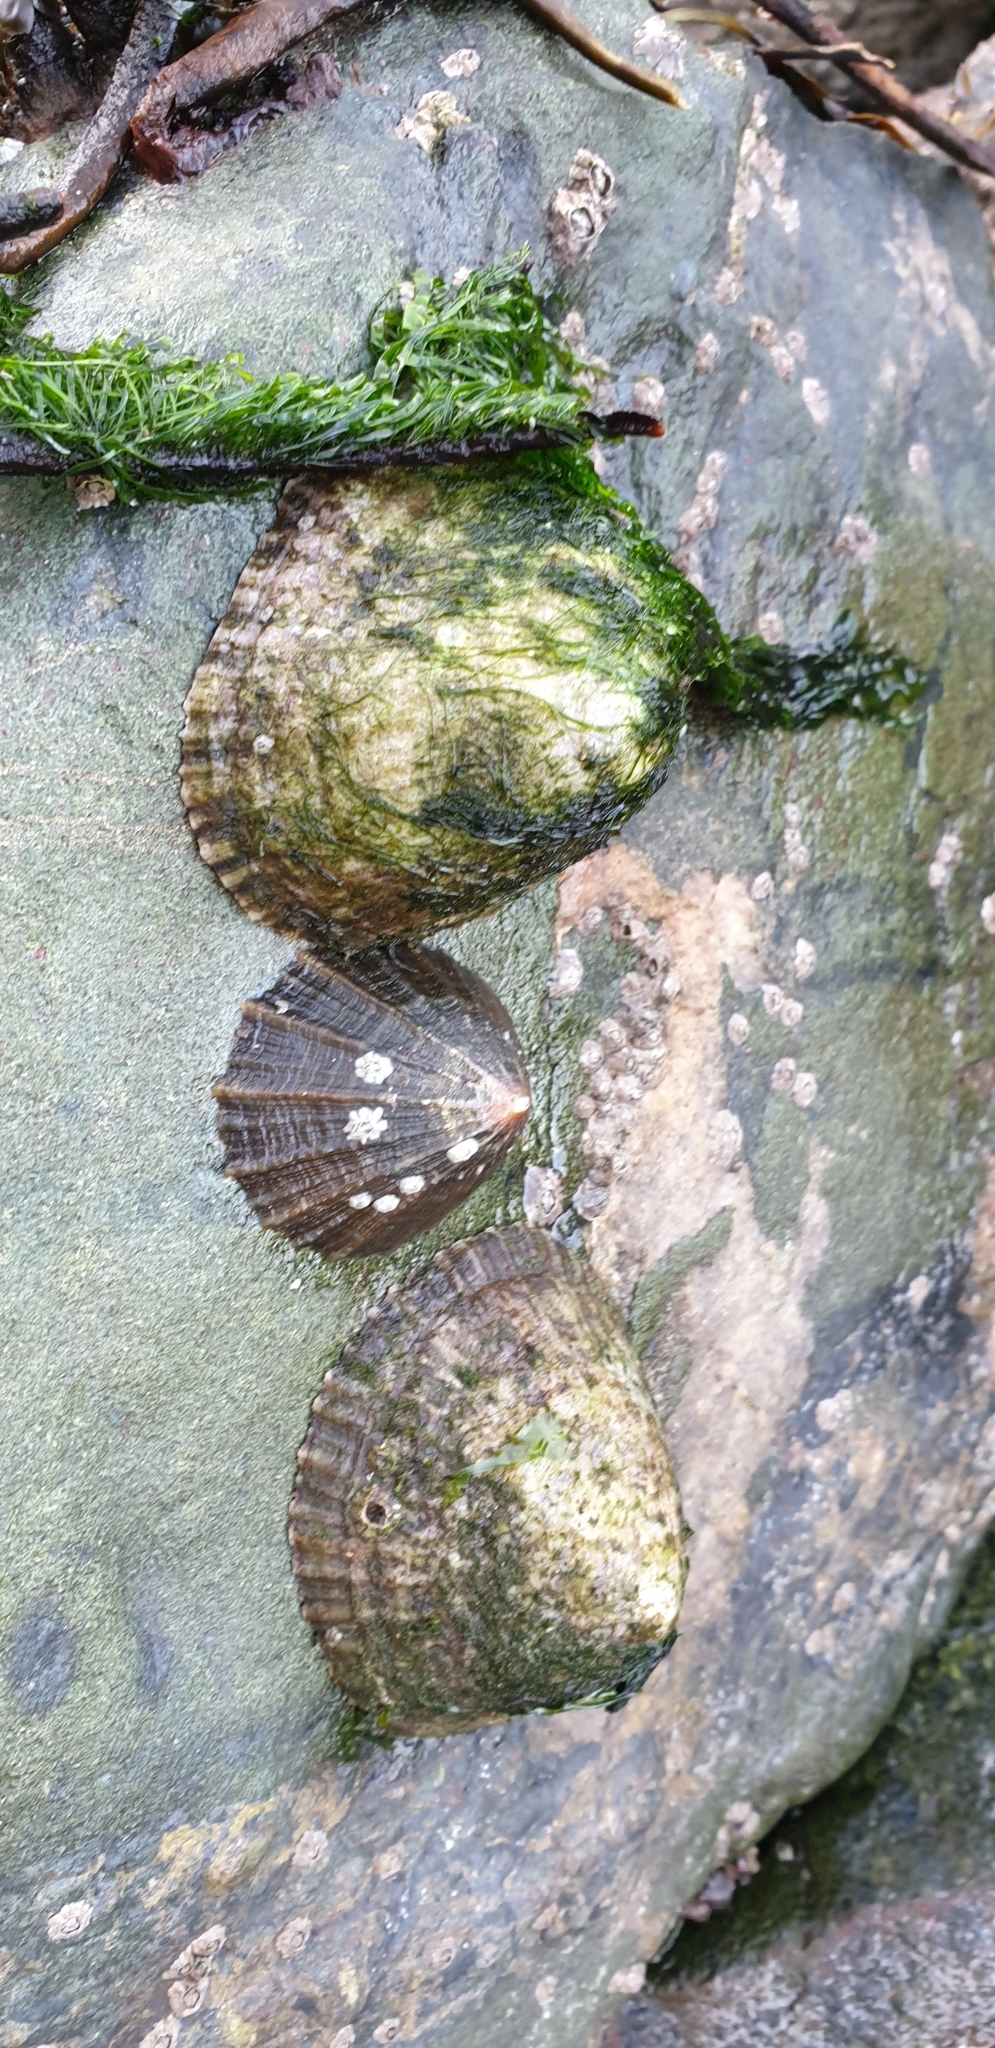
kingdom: Animalia
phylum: Mollusca
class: Gastropoda
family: Patellidae
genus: Patella
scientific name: Patella vulgata
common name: Common limpet
